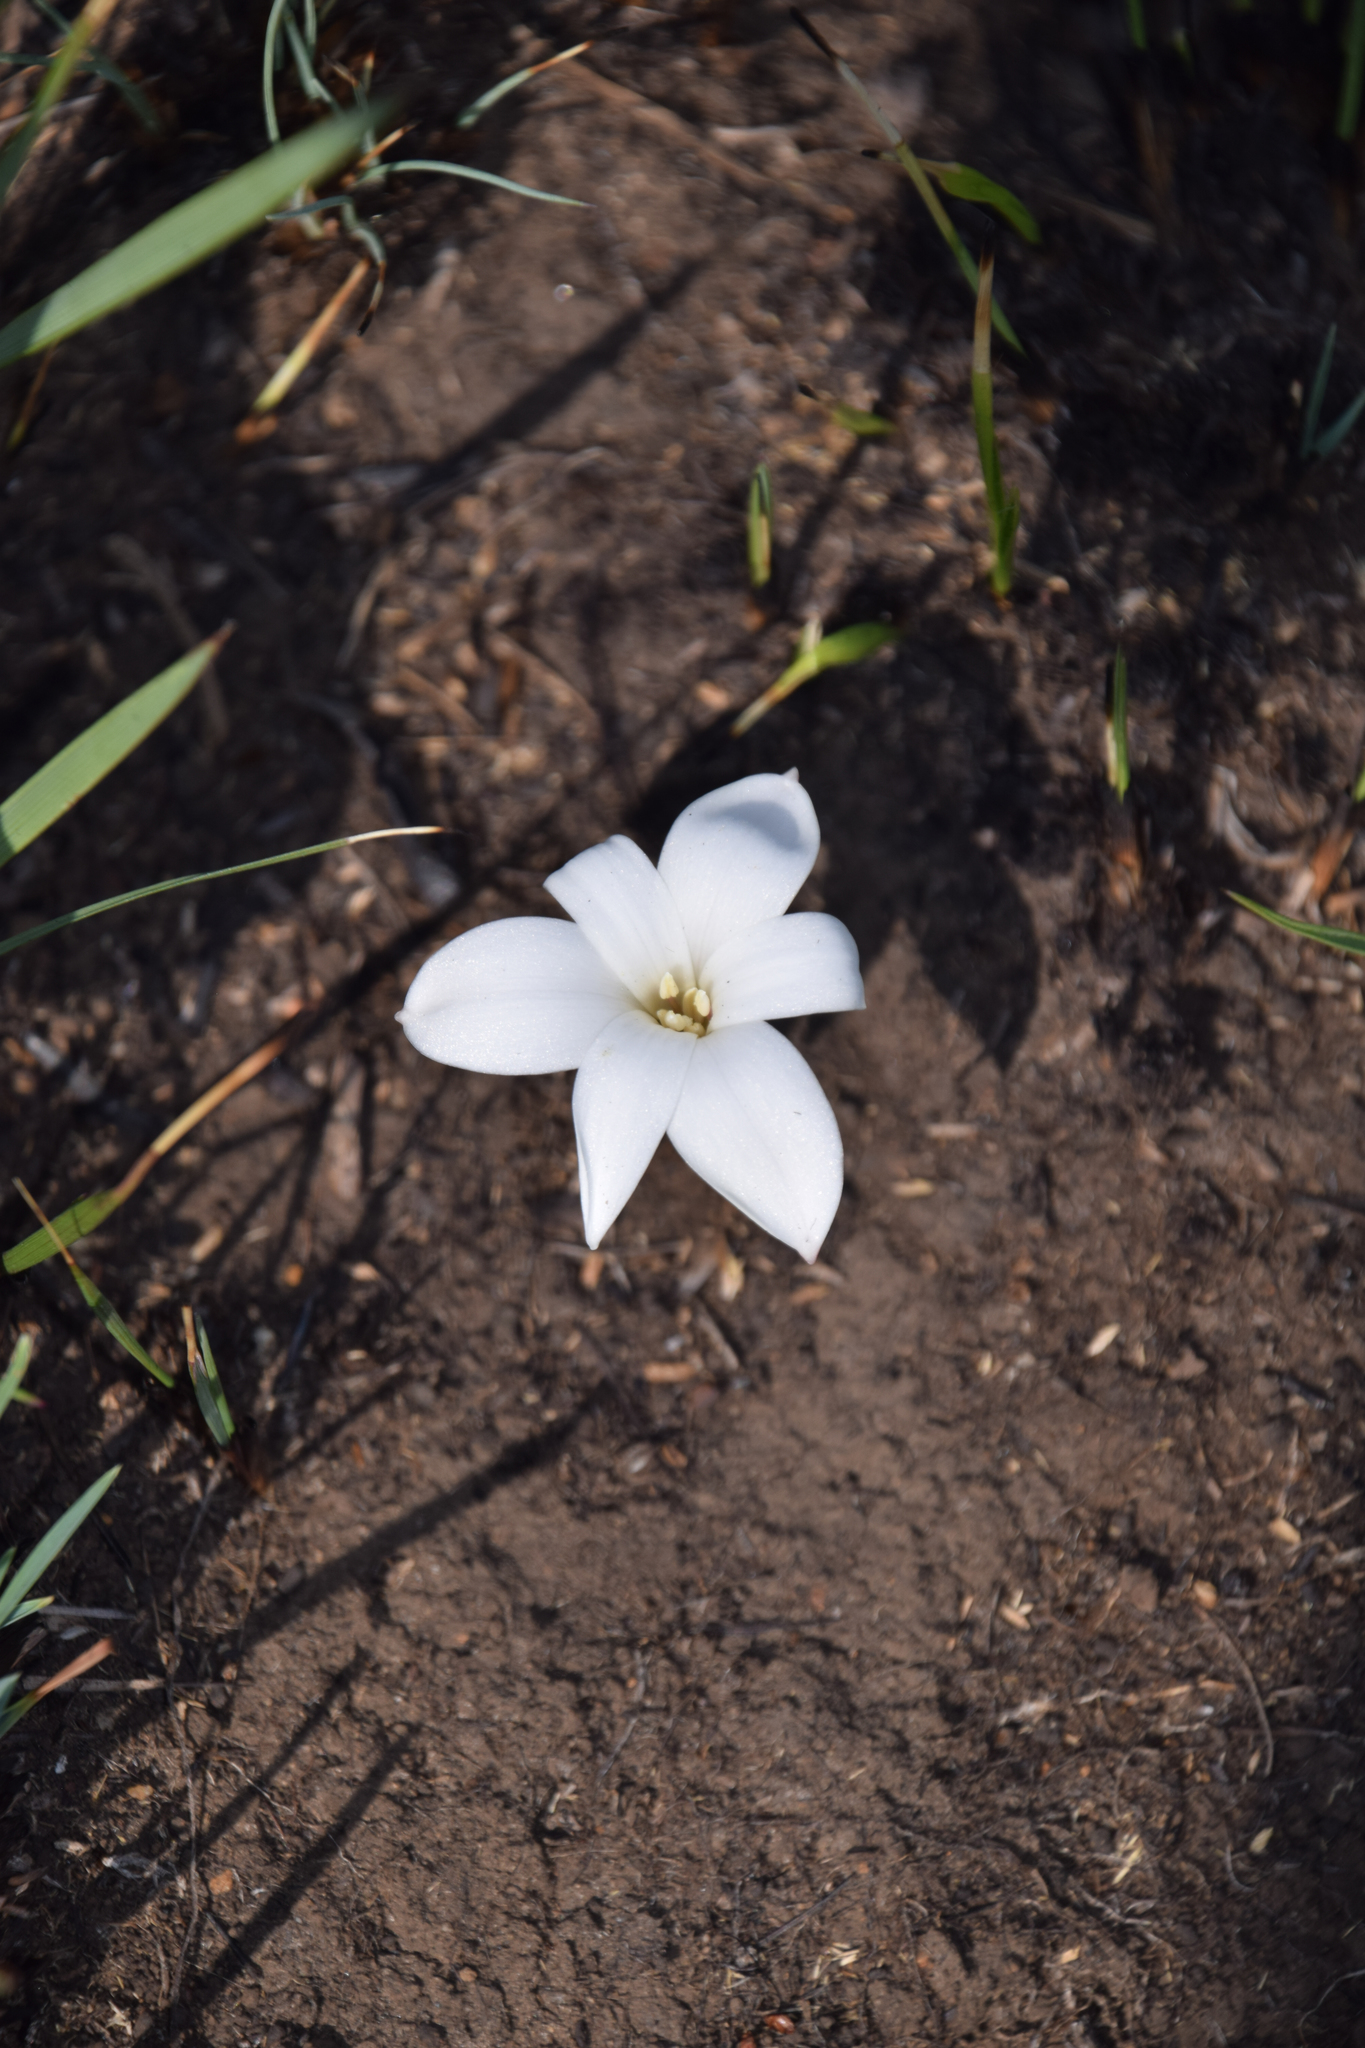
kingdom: Plantae
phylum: Tracheophyta
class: Liliopsida
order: Asparagales
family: Amaryllidaceae
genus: Apodolirion
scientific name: Apodolirion buchananii
